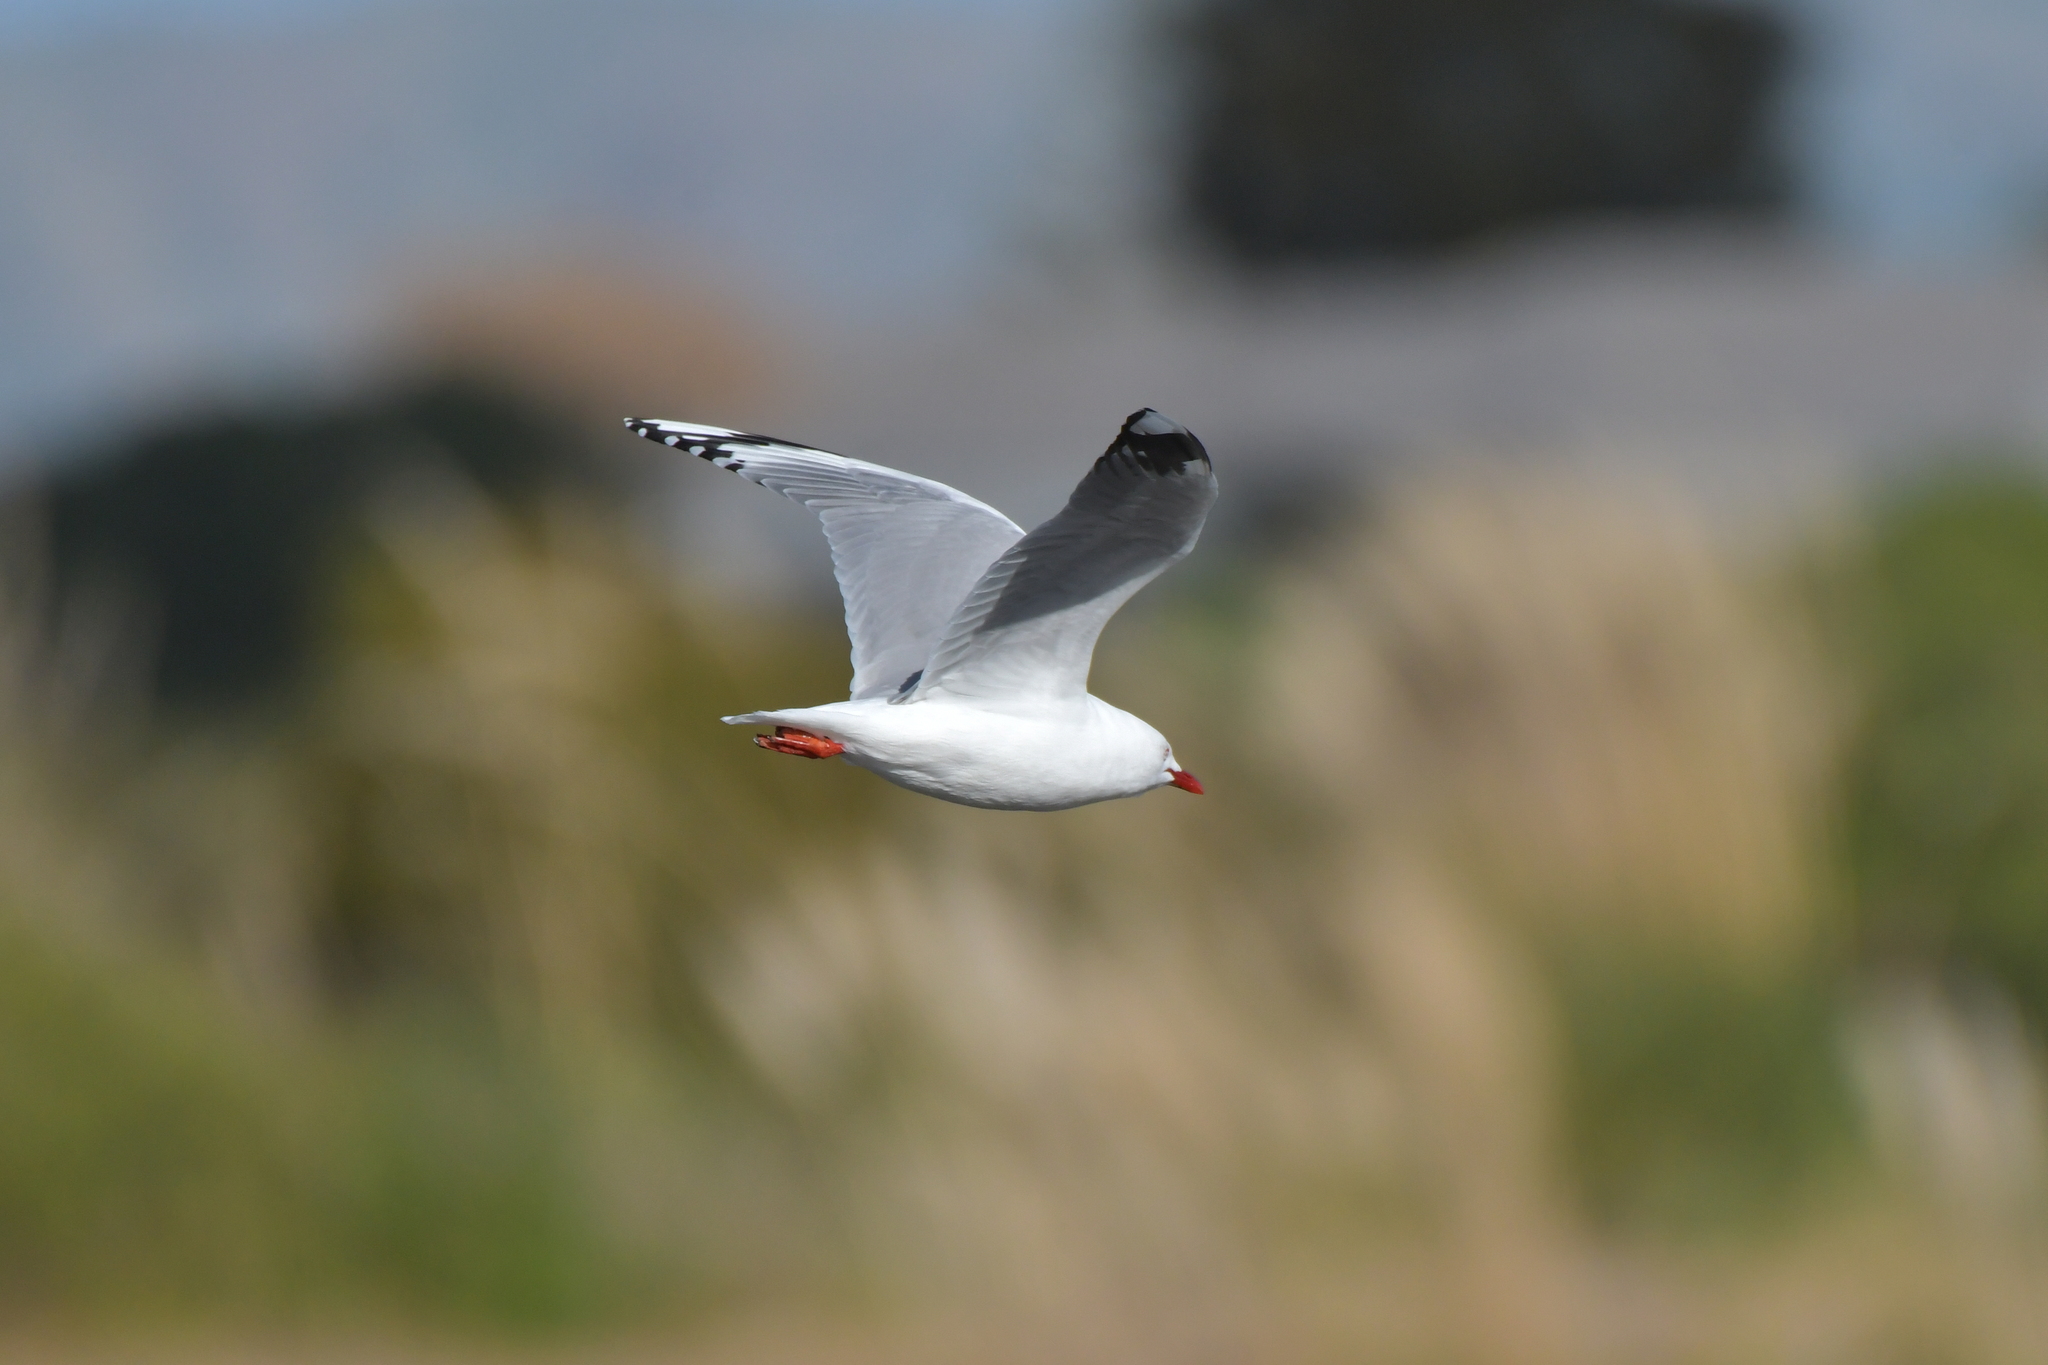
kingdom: Animalia
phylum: Chordata
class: Aves
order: Charadriiformes
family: Laridae
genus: Chroicocephalus
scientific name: Chroicocephalus novaehollandiae
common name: Silver gull
